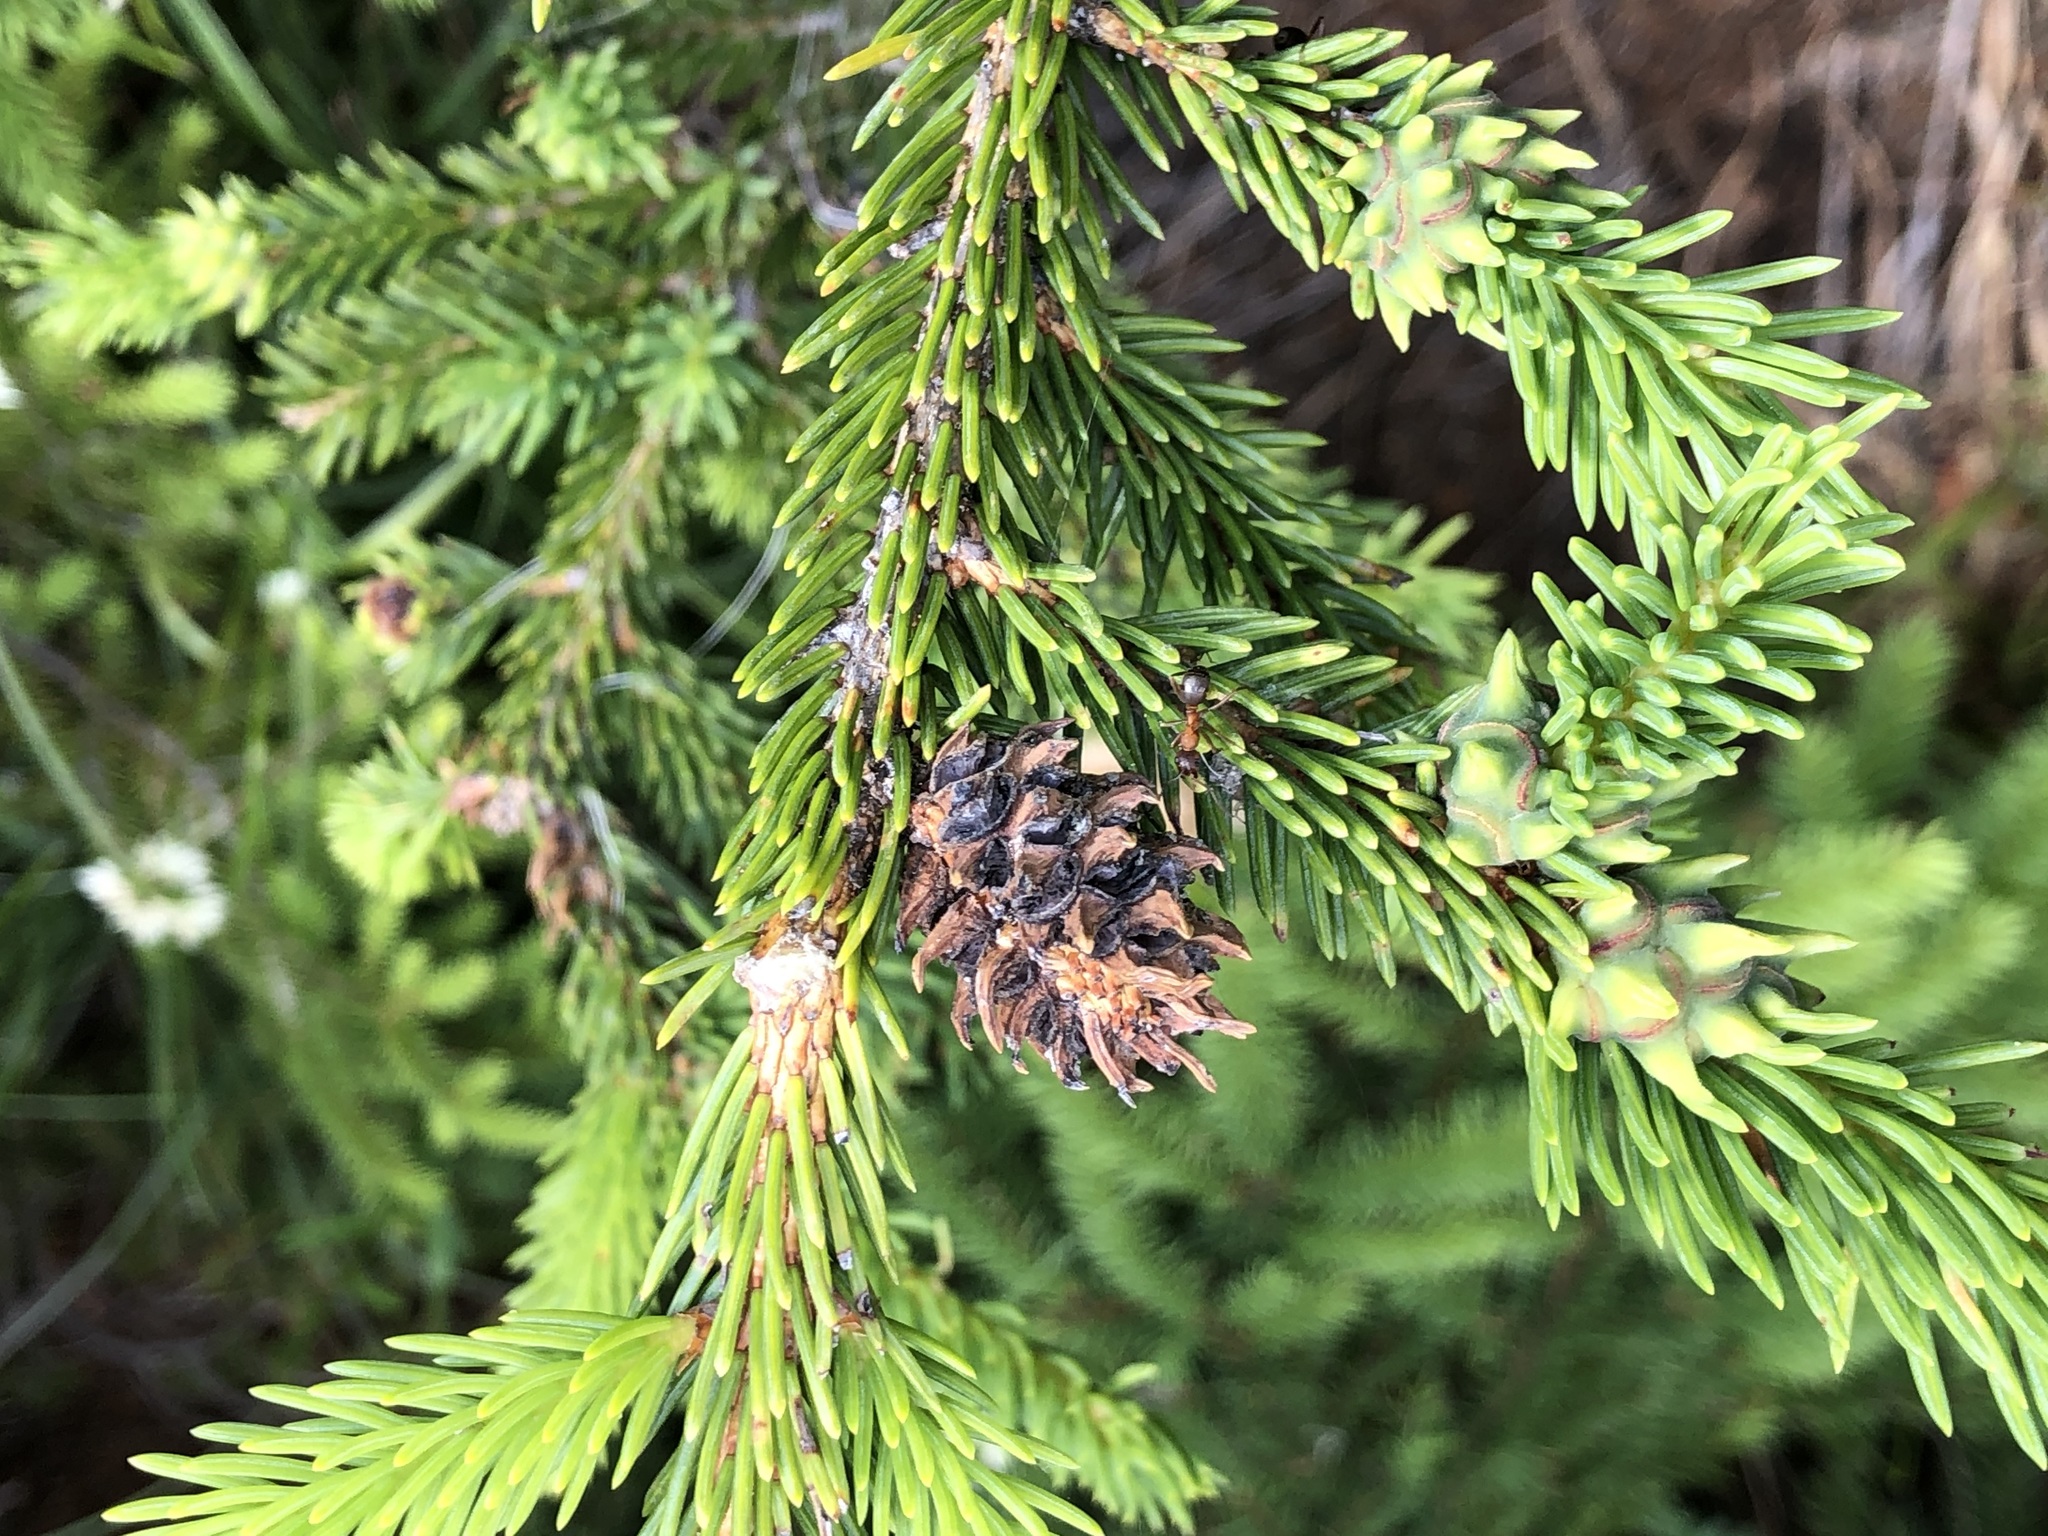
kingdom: Animalia
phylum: Arthropoda
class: Insecta
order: Hemiptera
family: Adelgidae
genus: Adelges
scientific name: Adelges viridis
